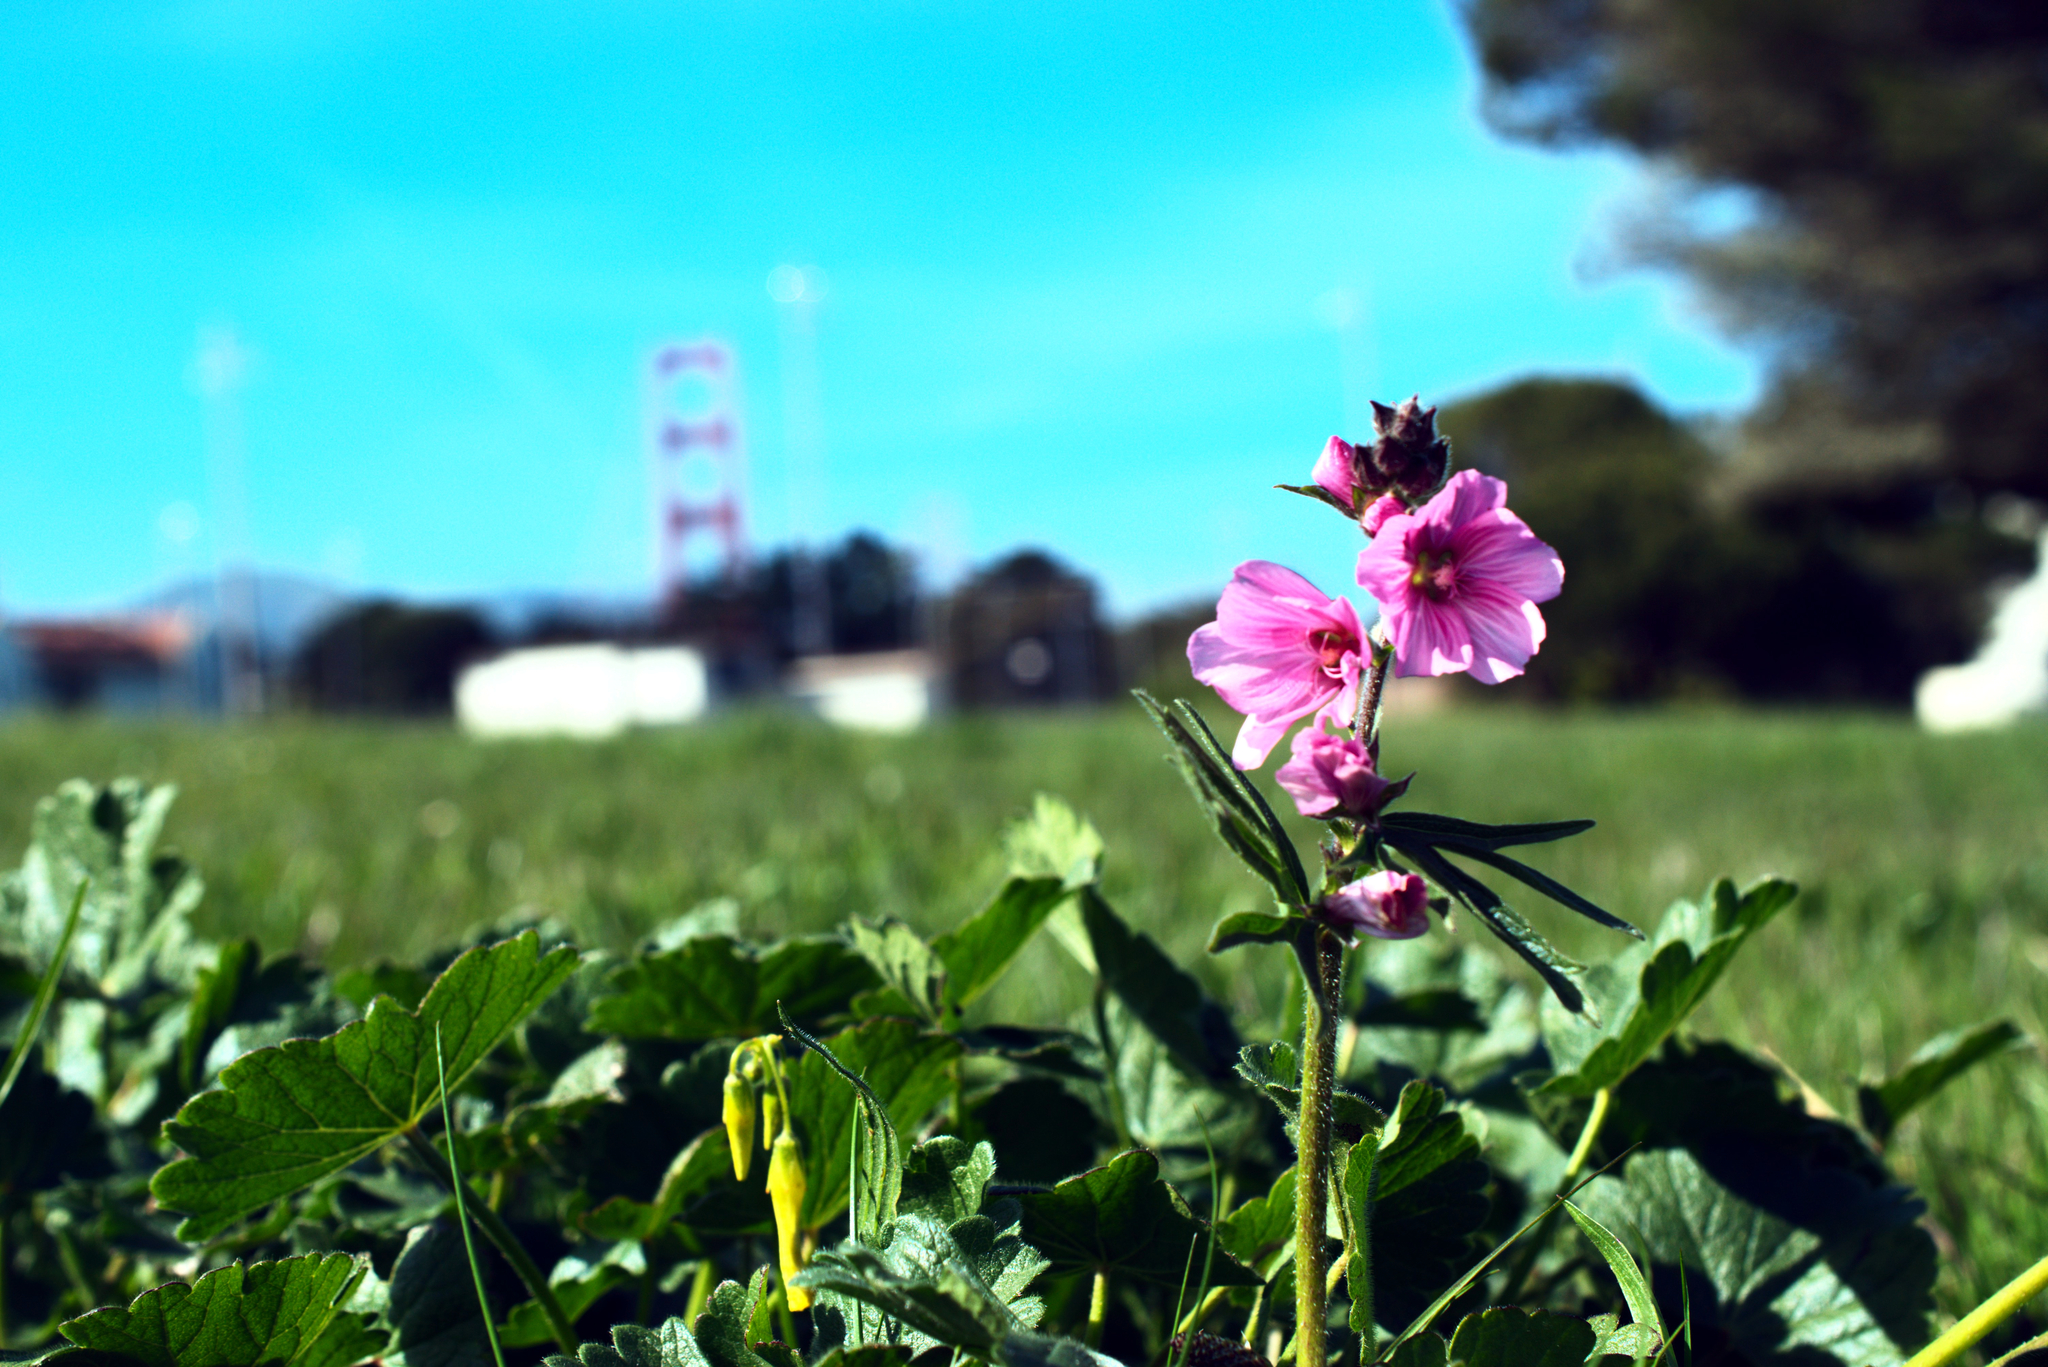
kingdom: Plantae
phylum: Tracheophyta
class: Magnoliopsida
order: Malvales
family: Malvaceae
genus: Sidalcea
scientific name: Sidalcea malviflora
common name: Greek mallow
